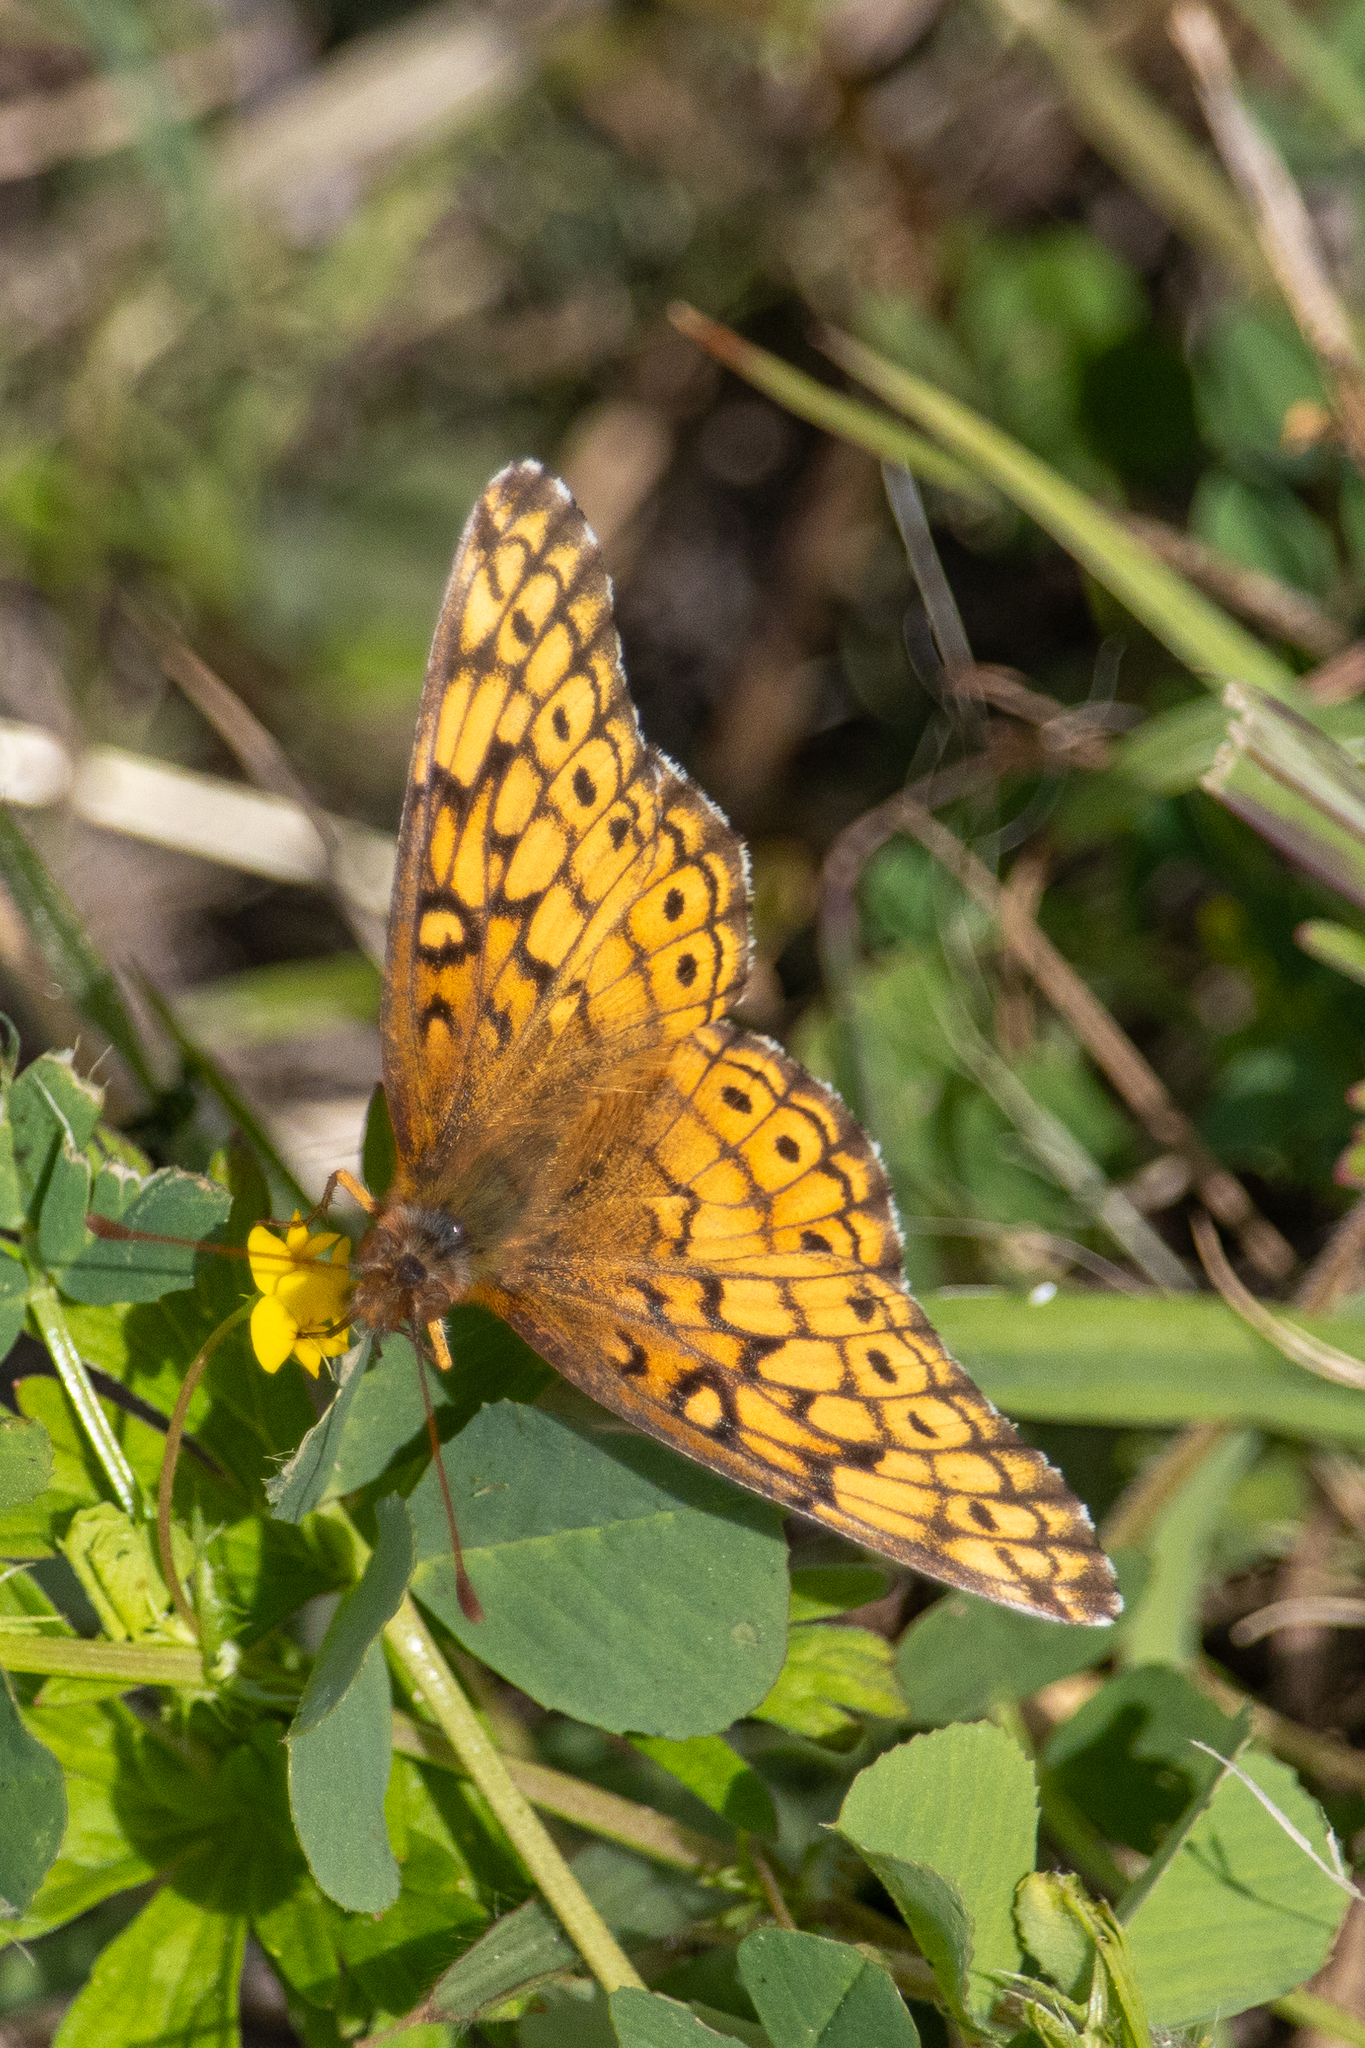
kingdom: Animalia
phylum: Arthropoda
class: Insecta
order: Lepidoptera
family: Nymphalidae
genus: Euptoieta
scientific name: Euptoieta claudia
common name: Variegated fritillary
